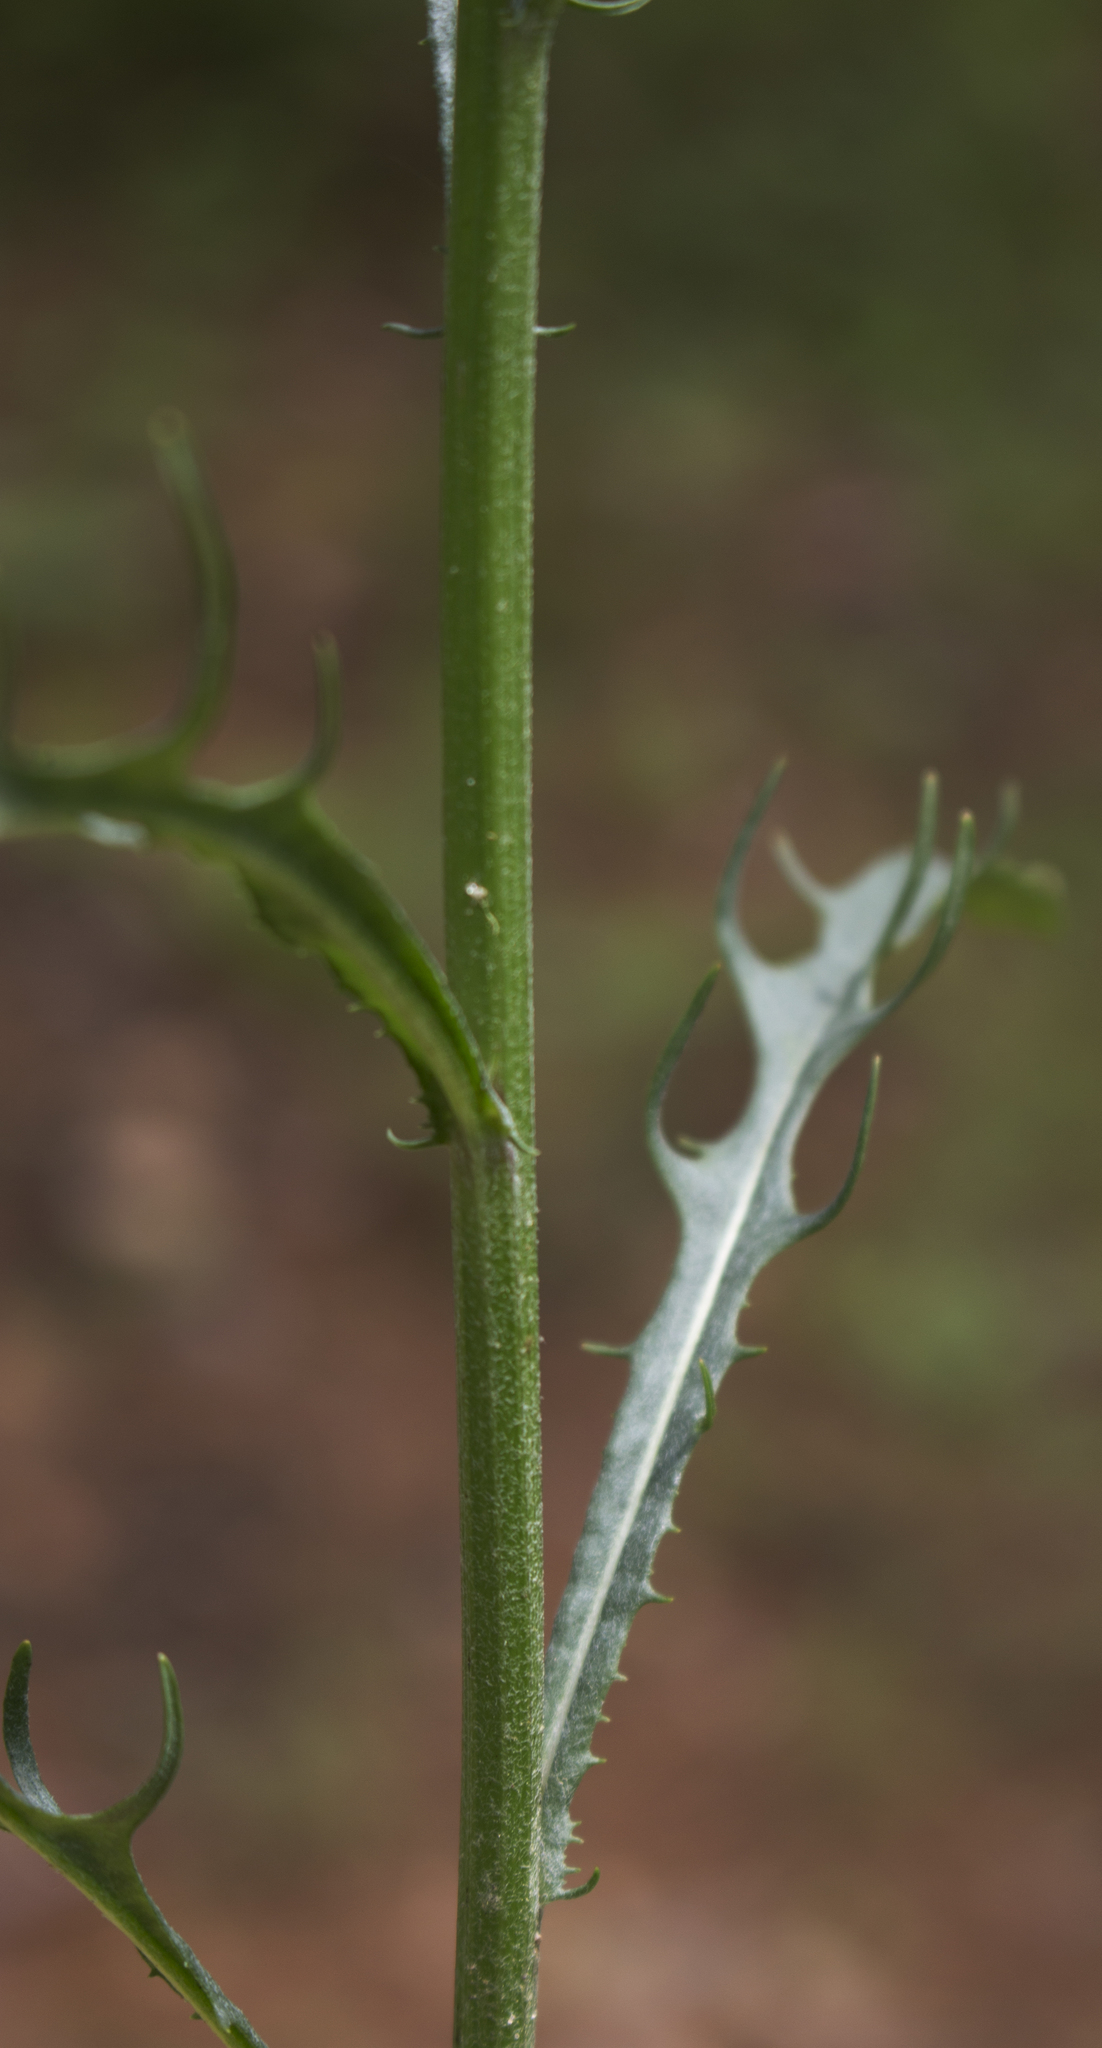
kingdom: Plantae
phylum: Tracheophyta
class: Magnoliopsida
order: Asterales
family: Asteraceae
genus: Crepis
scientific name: Crepis tectorum
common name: Narrow-leaved hawk's-beard
